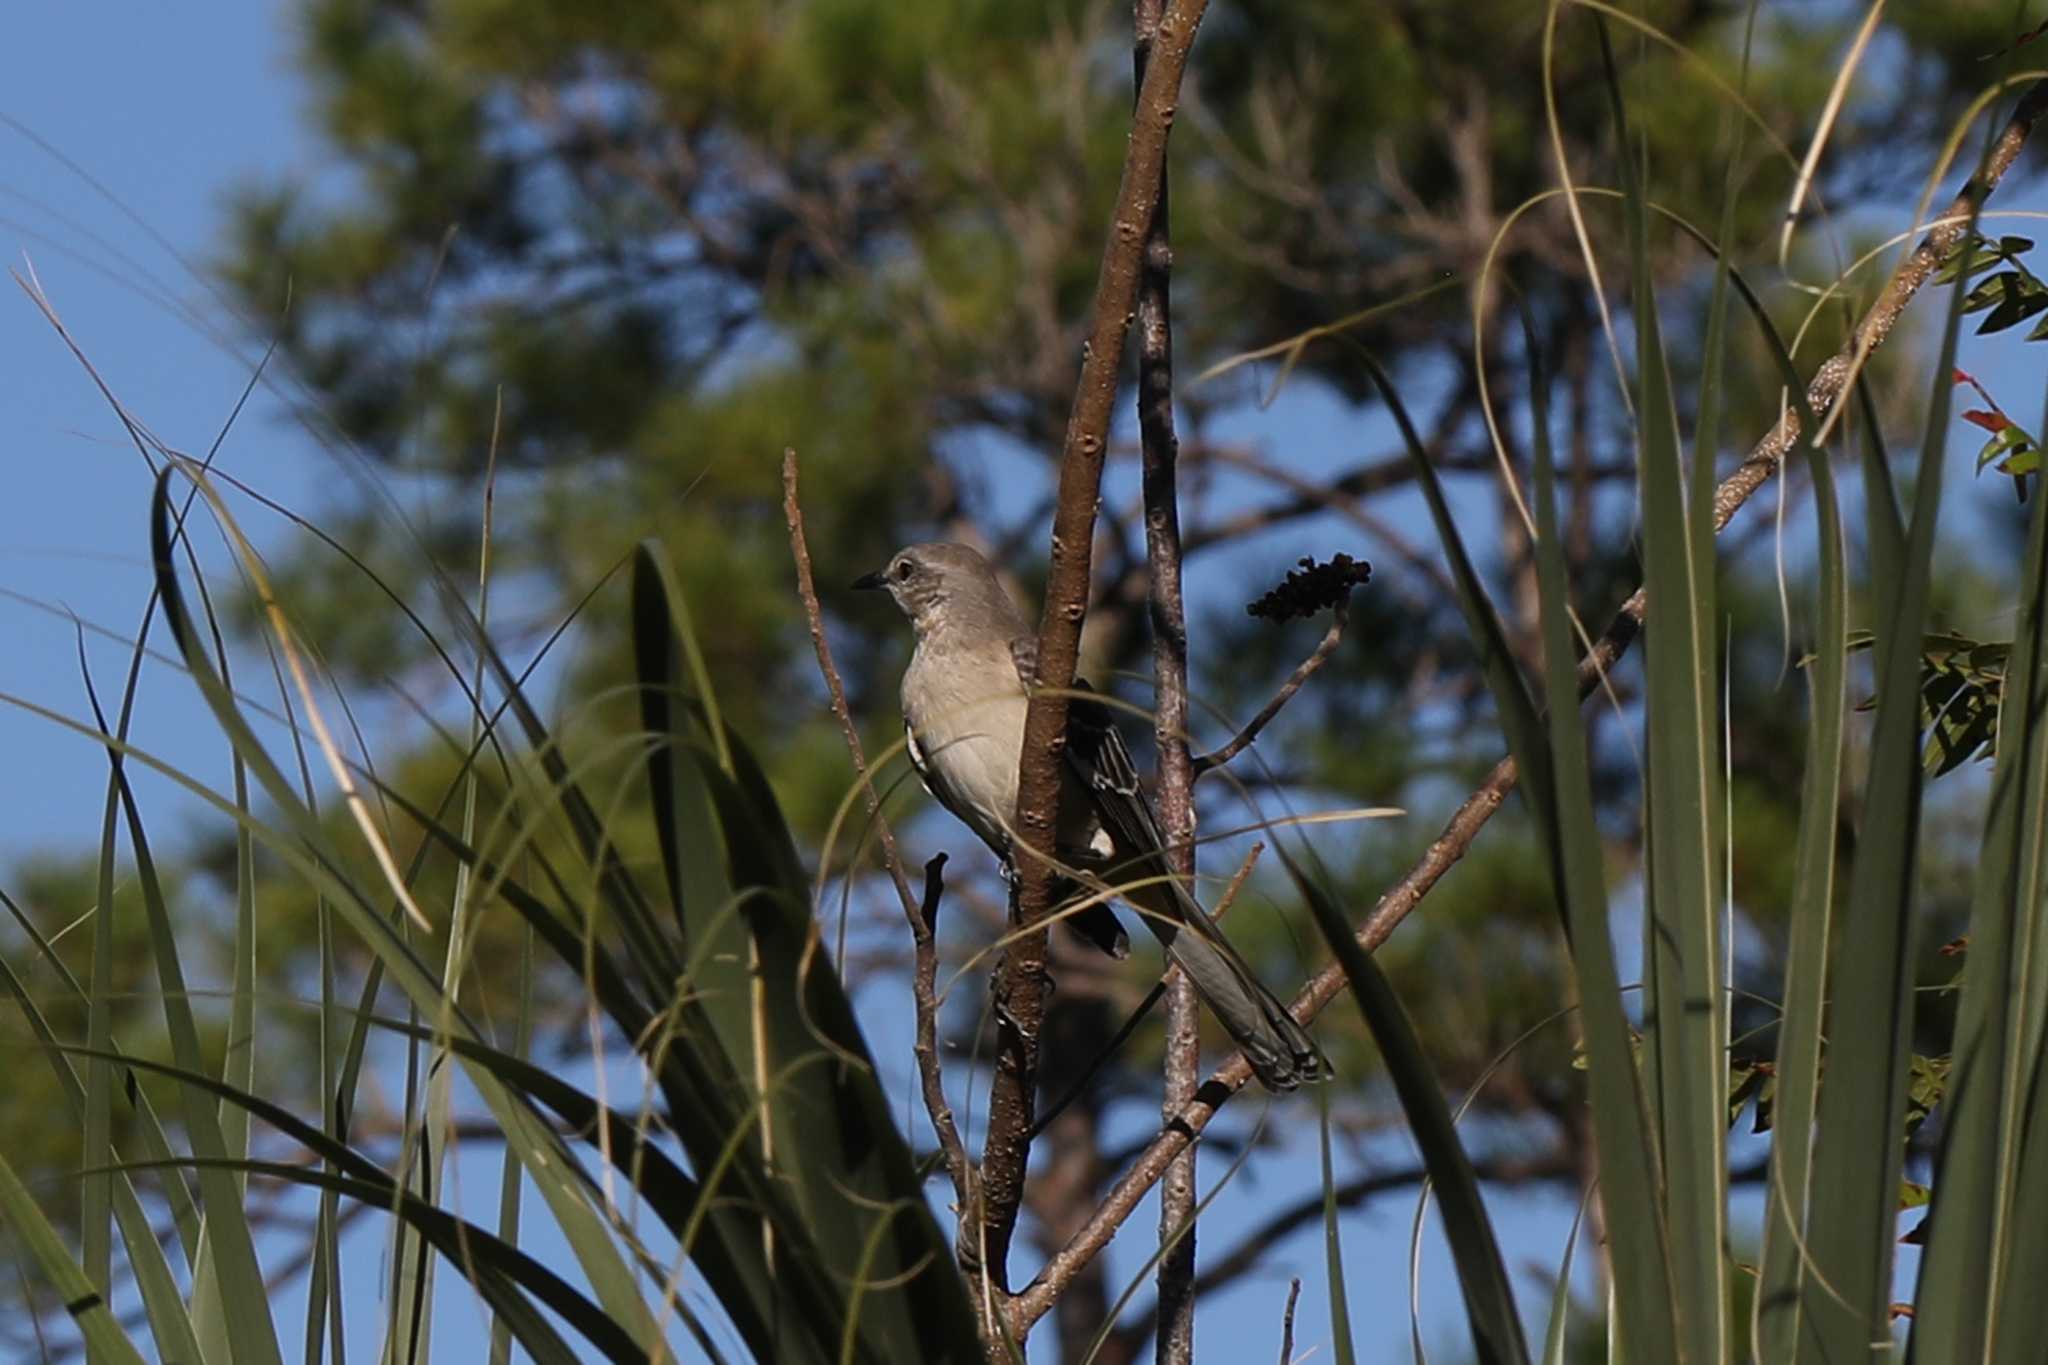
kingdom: Animalia
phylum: Chordata
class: Aves
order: Passeriformes
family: Mimidae
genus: Mimus
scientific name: Mimus polyglottos
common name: Northern mockingbird
